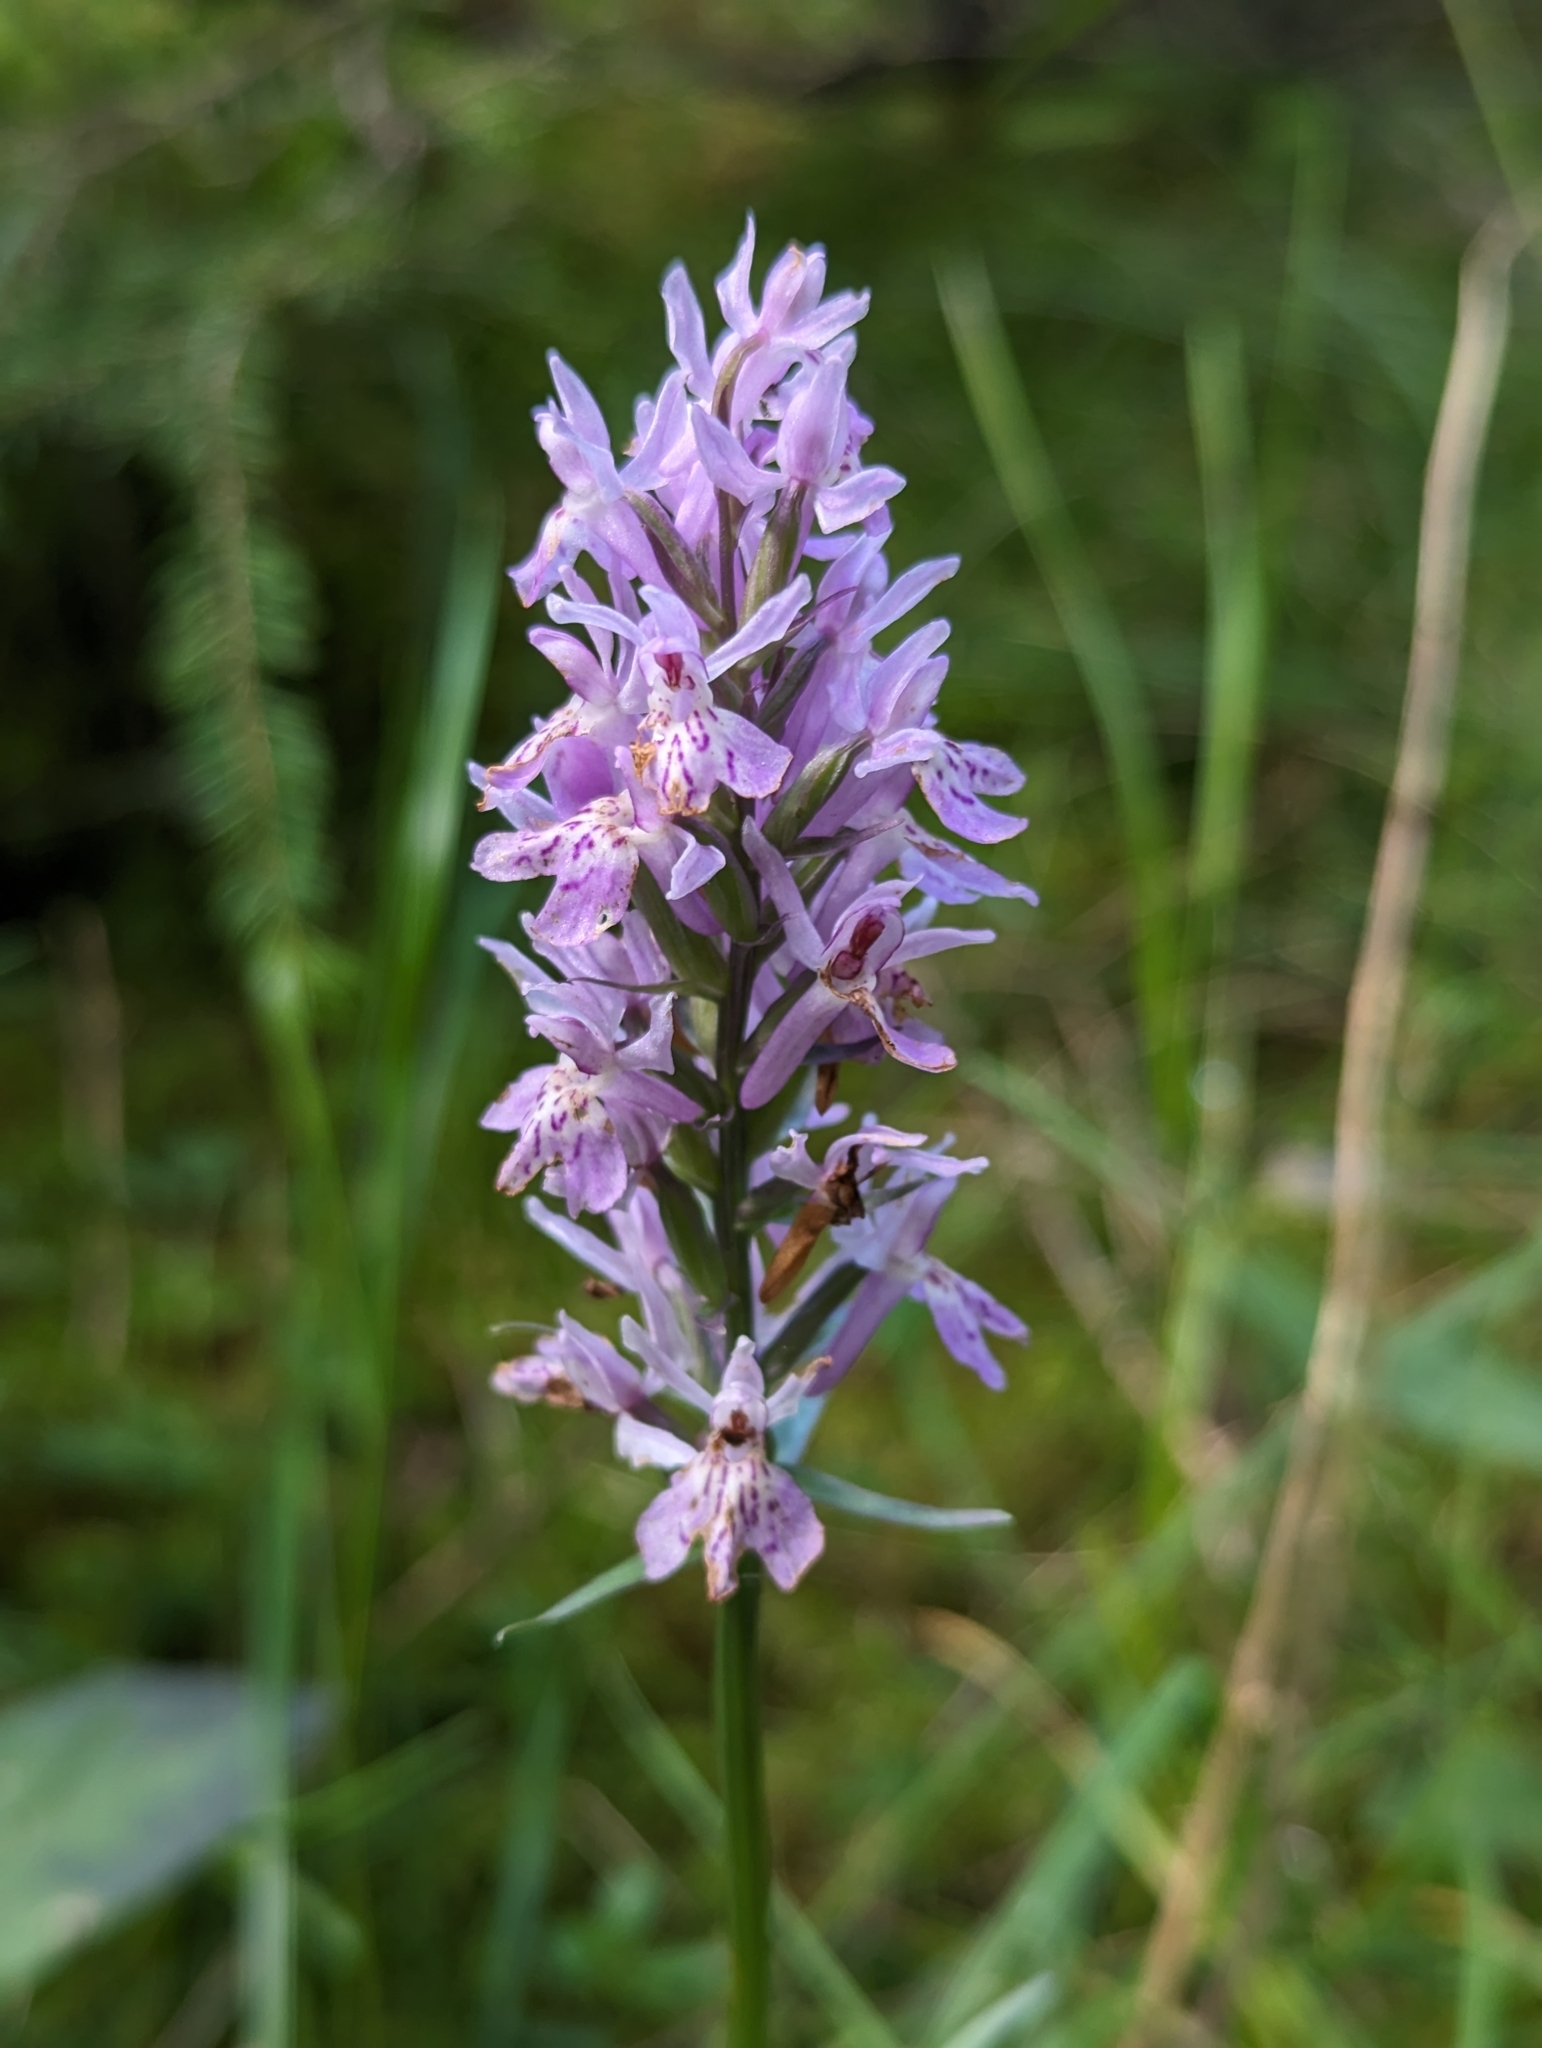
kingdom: Plantae
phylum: Tracheophyta
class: Liliopsida
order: Asparagales
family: Orchidaceae
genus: Dactylorhiza
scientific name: Dactylorhiza maculata
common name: Heath spotted-orchid
